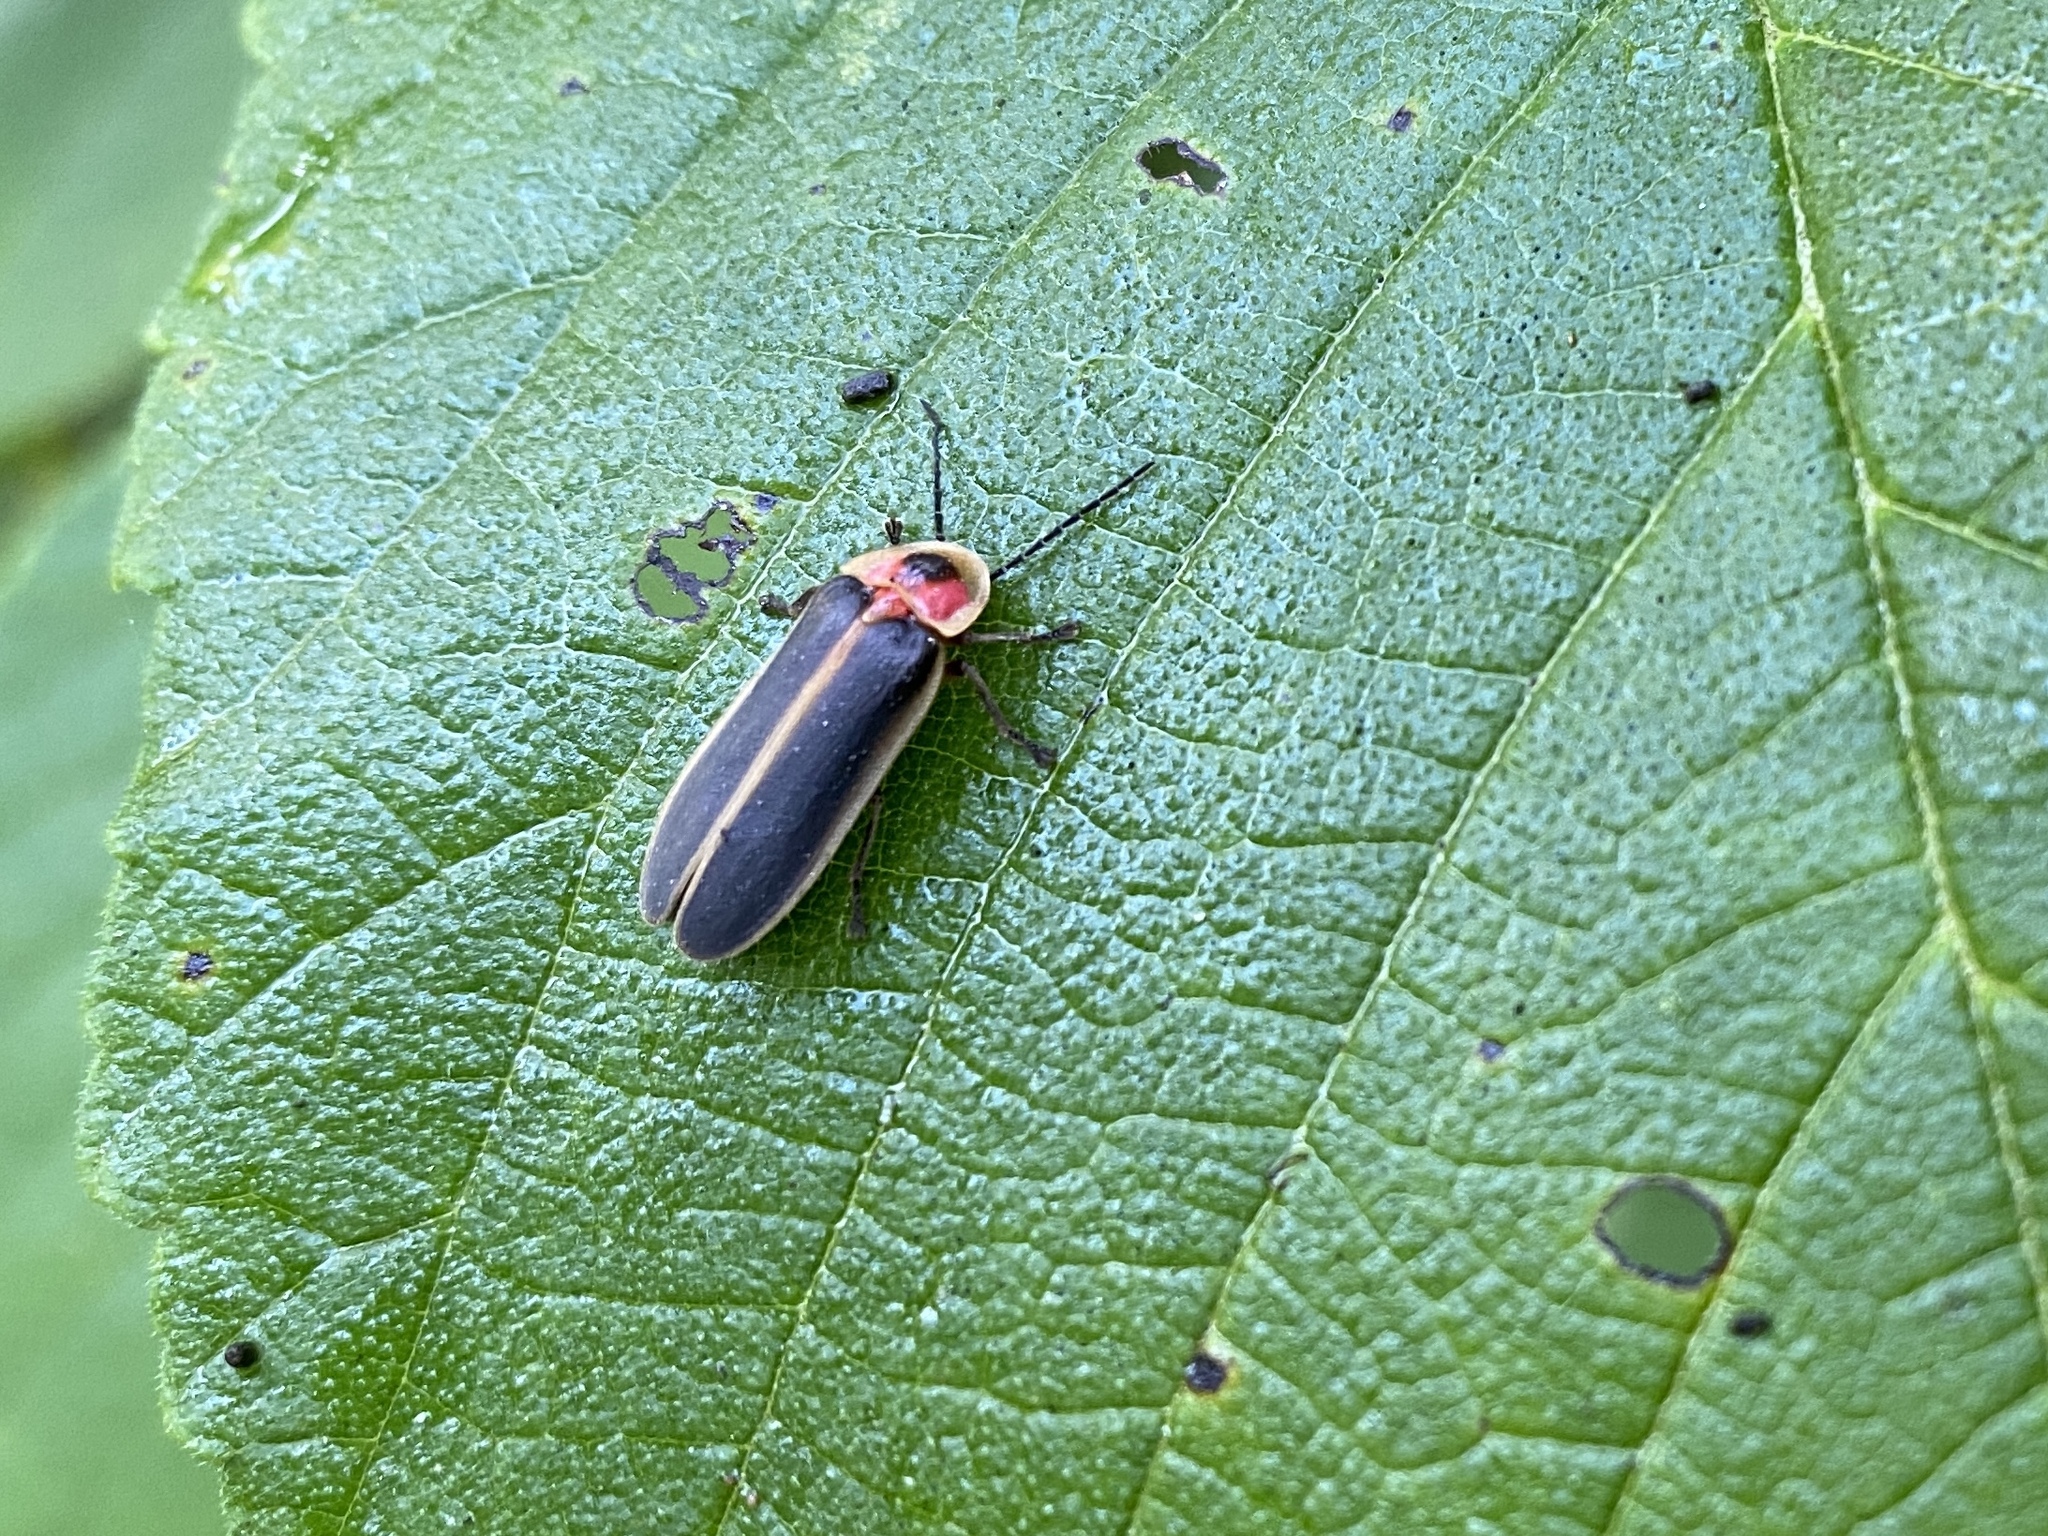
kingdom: Animalia
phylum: Arthropoda
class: Insecta
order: Coleoptera
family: Lampyridae
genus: Photinus
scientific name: Photinus pyralis
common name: Big dipper firefly
